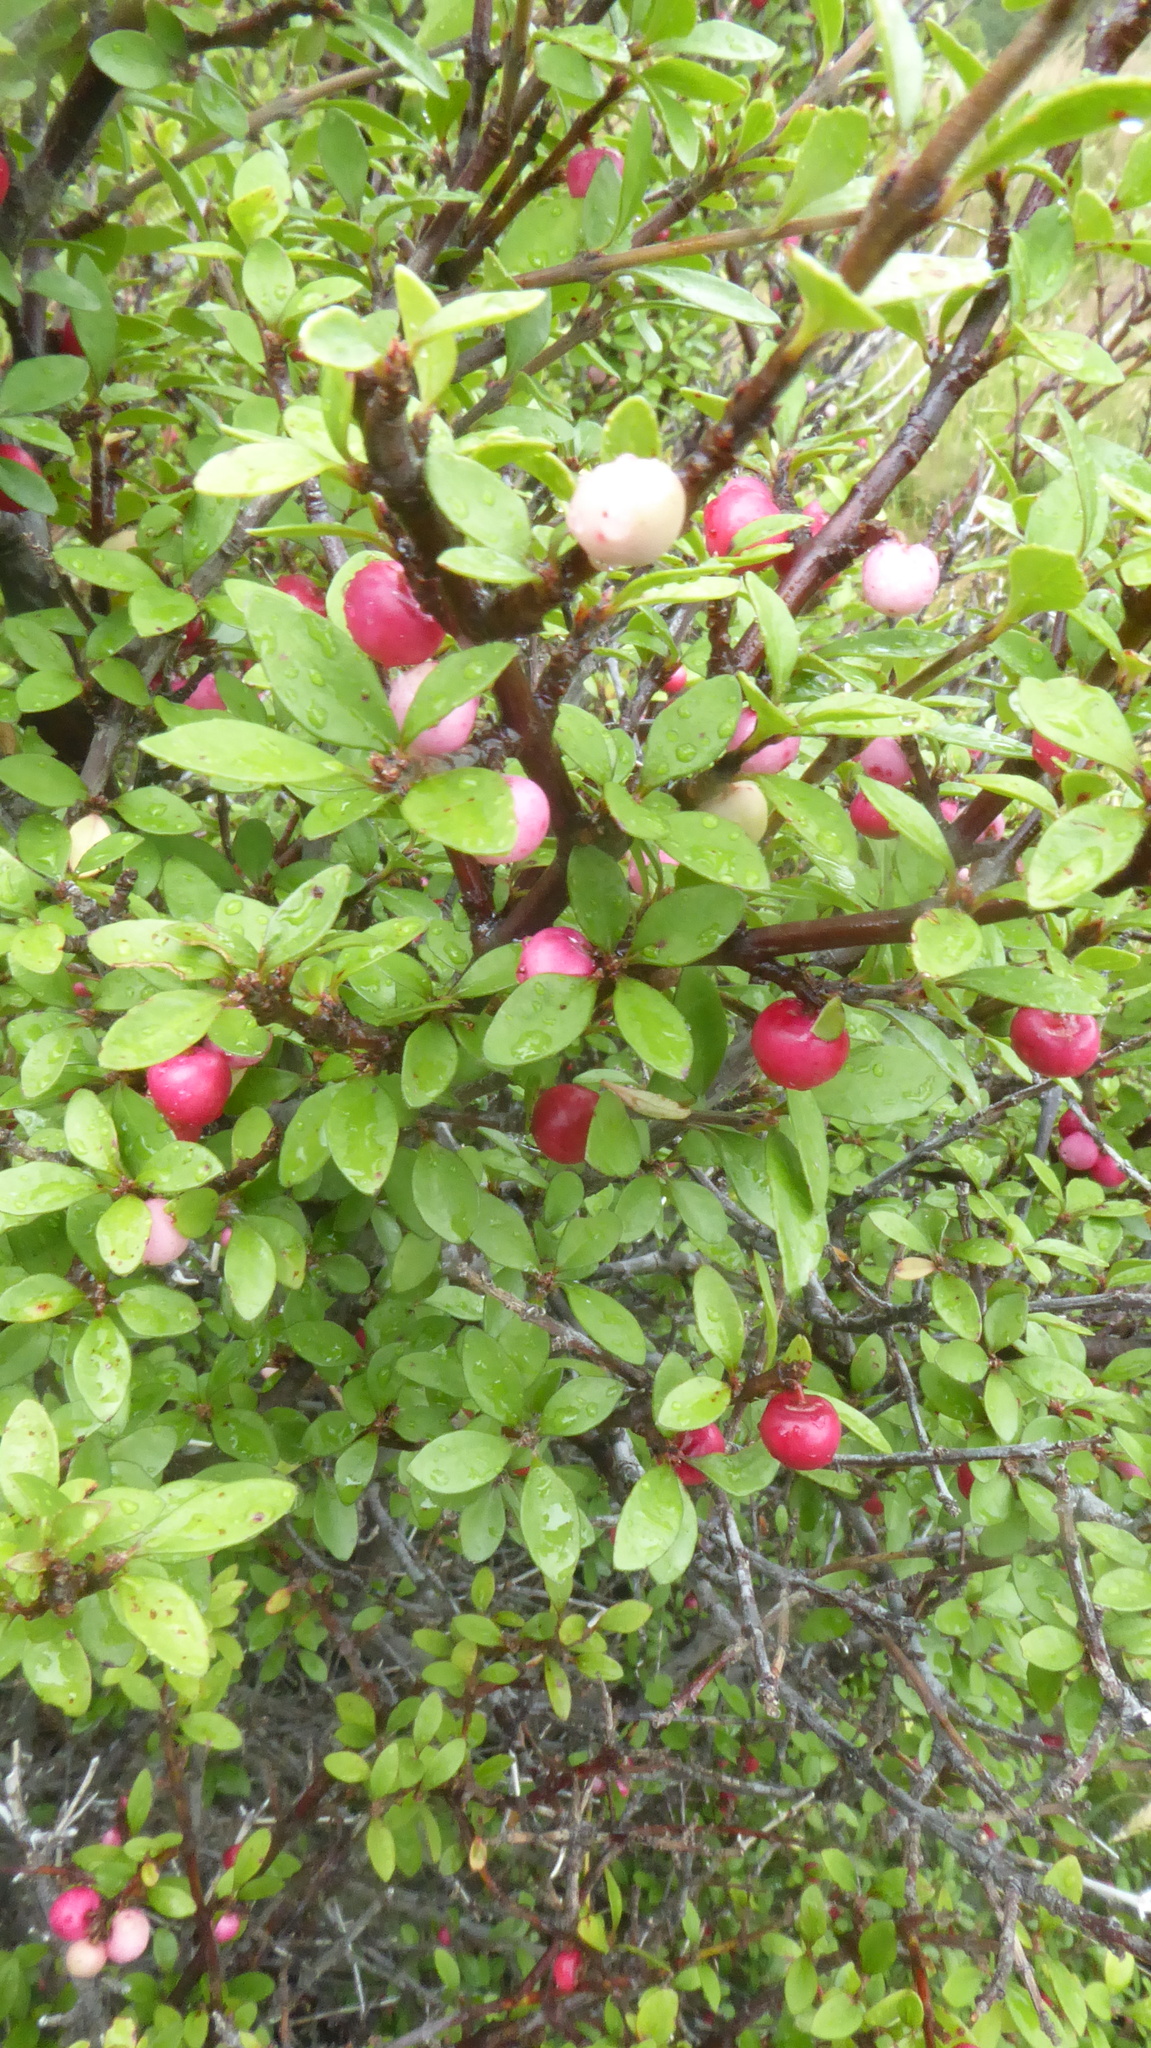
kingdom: Plantae
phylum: Tracheophyta
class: Magnoliopsida
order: Oxalidales
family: Elaeocarpaceae
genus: Aristotelia
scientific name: Aristotelia fruticosa
